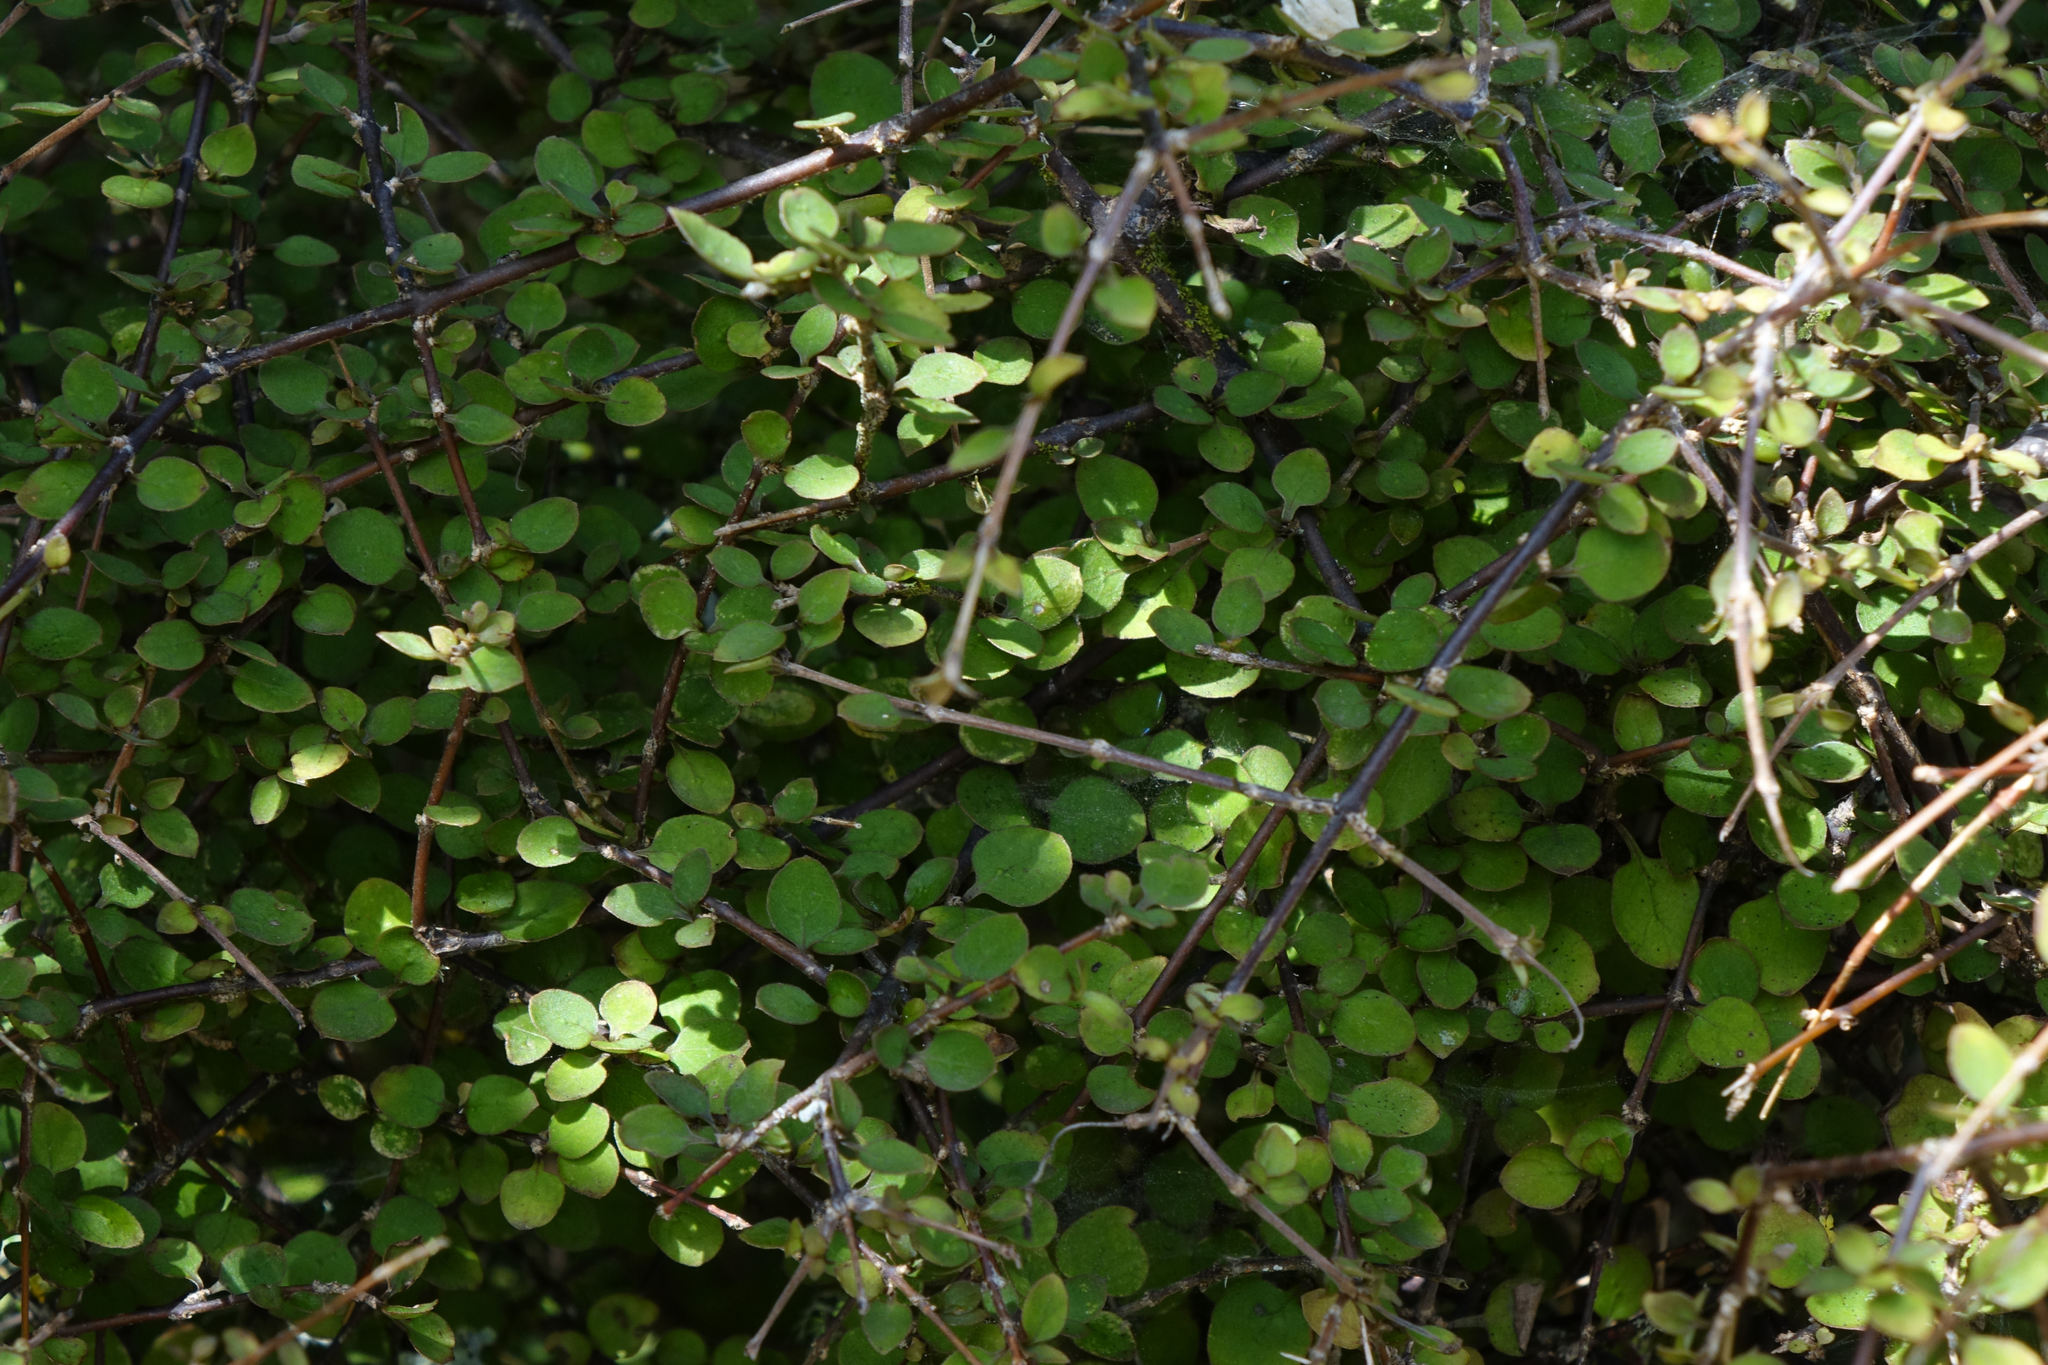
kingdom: Plantae
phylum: Tracheophyta
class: Magnoliopsida
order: Gentianales
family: Rubiaceae
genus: Coprosma
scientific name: Coprosma rubra
